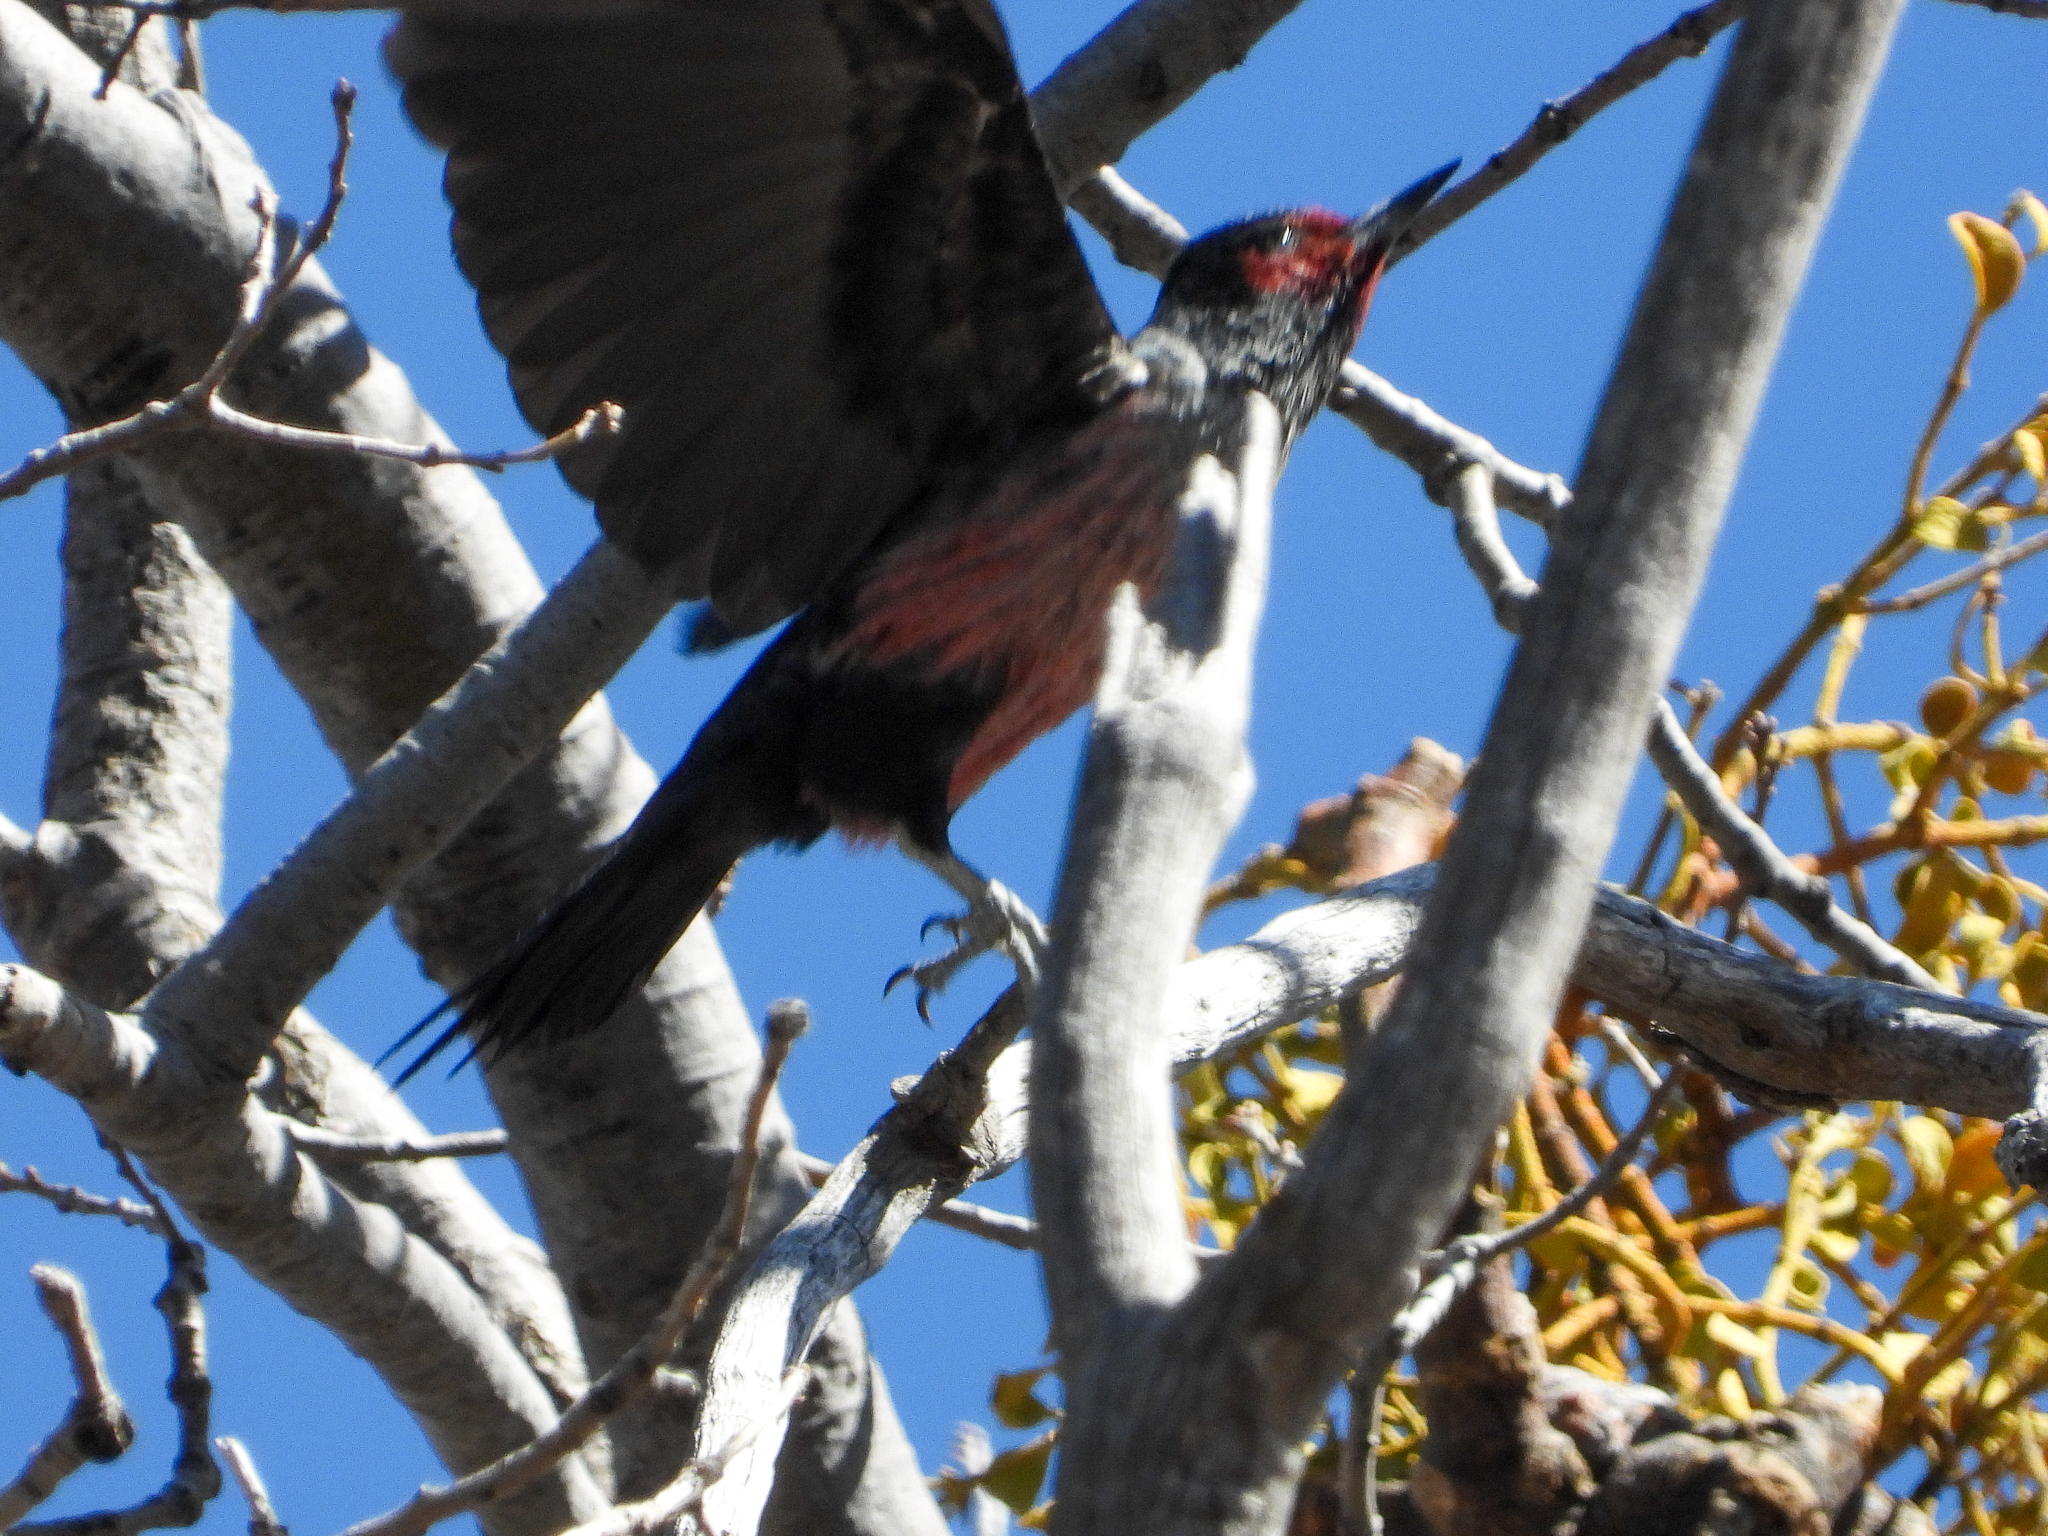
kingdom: Animalia
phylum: Chordata
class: Aves
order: Piciformes
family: Picidae
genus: Melanerpes
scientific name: Melanerpes lewis
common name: Lewis's woodpecker
